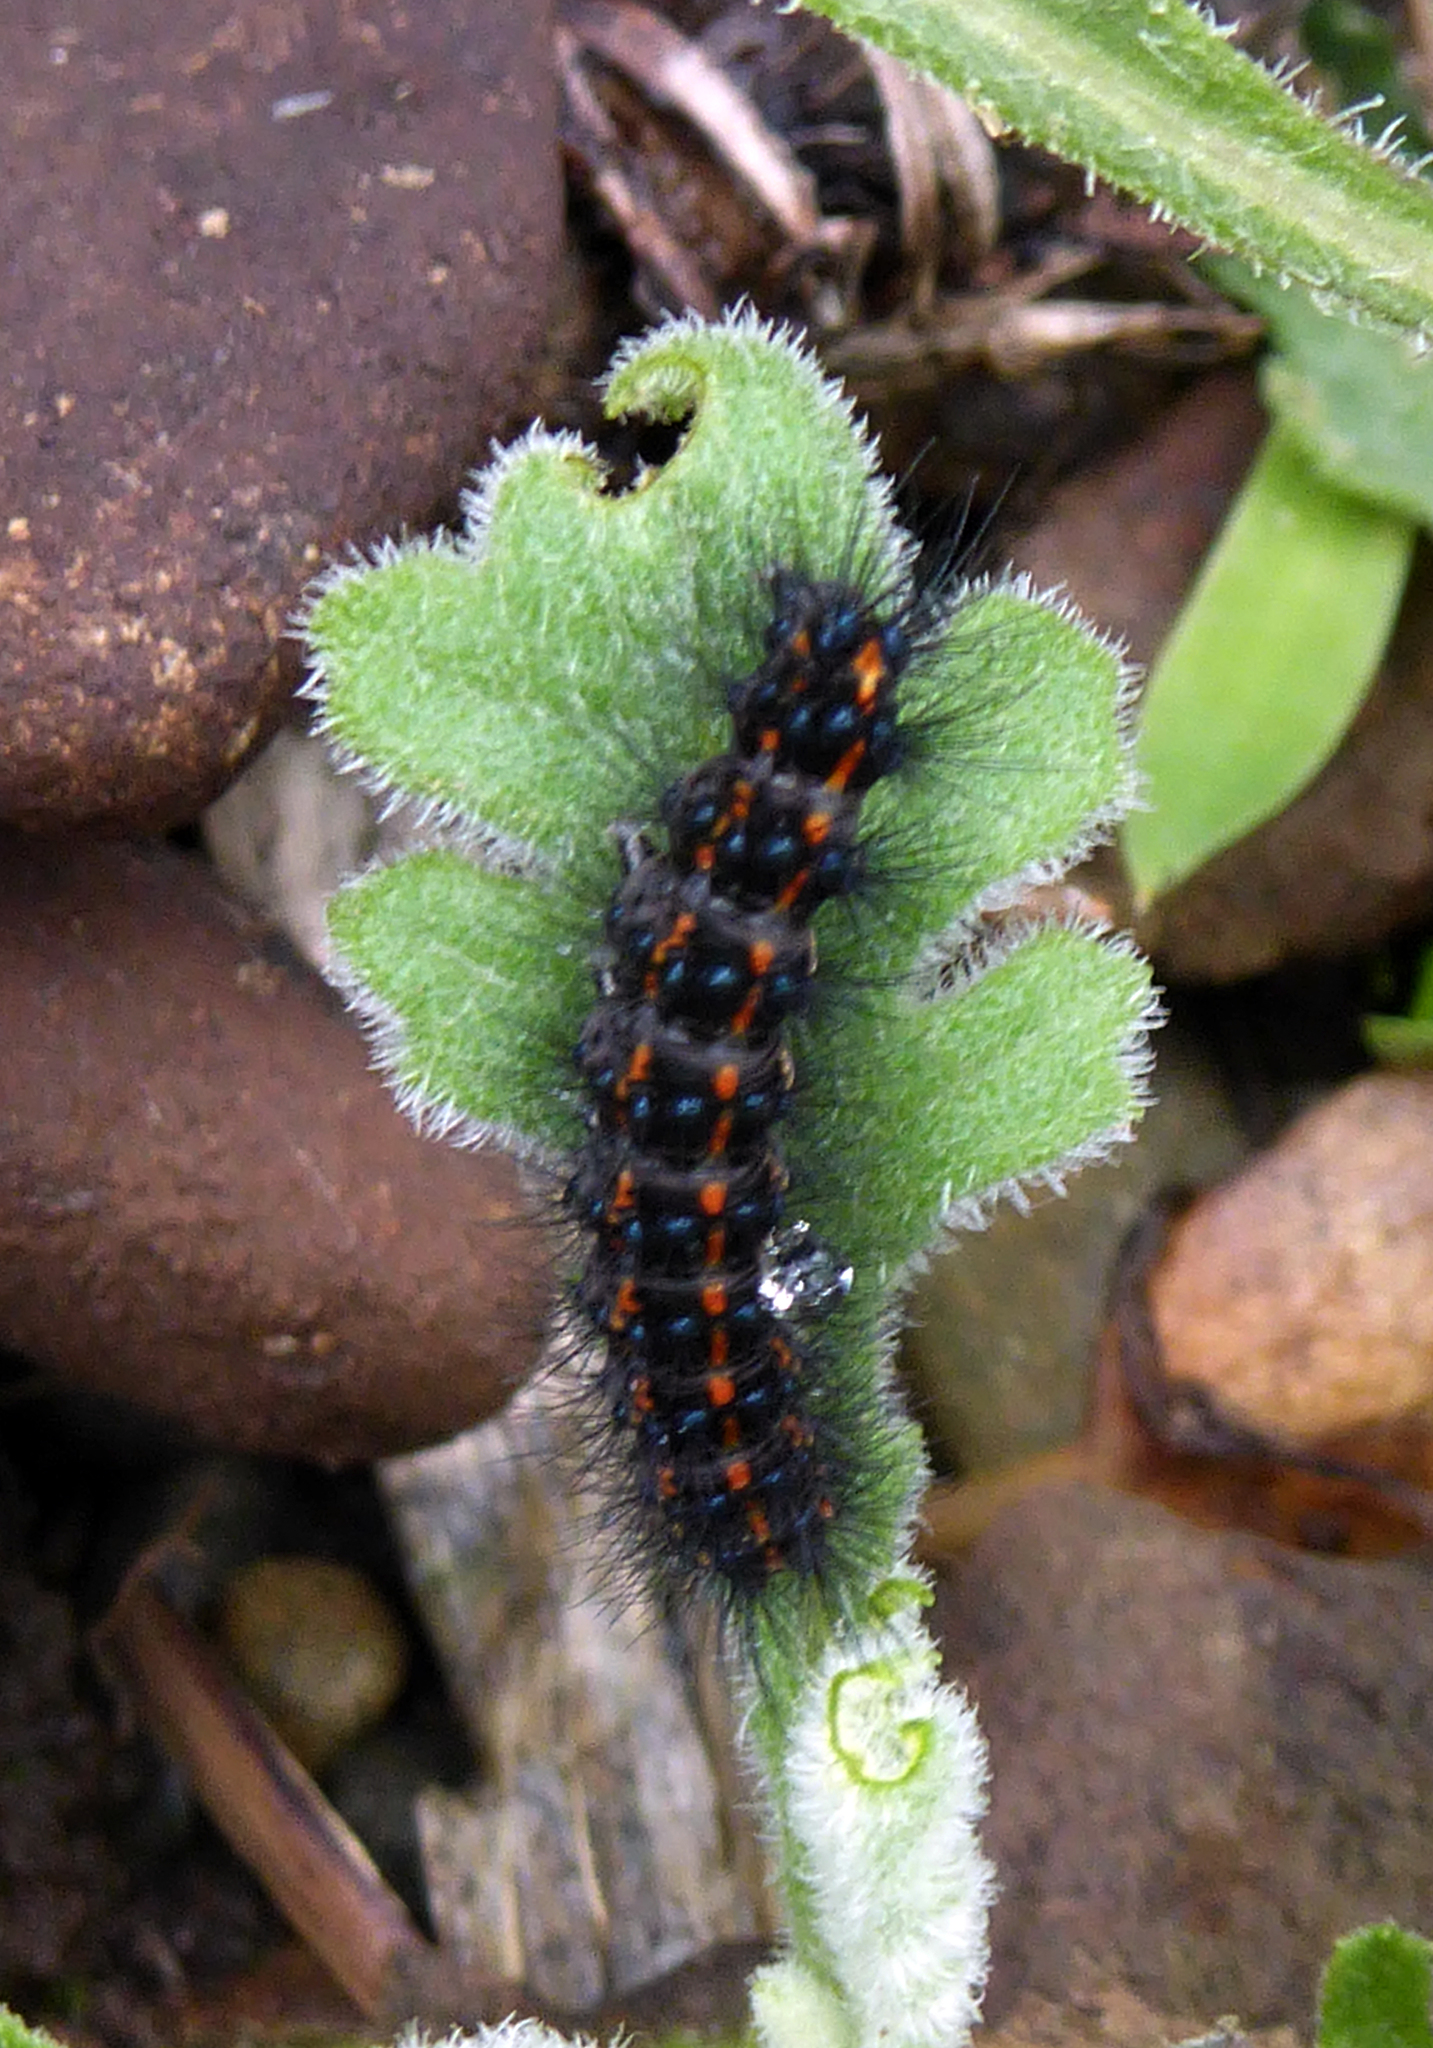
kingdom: Animalia
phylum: Arthropoda
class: Insecta
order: Lepidoptera
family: Erebidae
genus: Nyctemera
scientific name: Nyctemera annulatum
